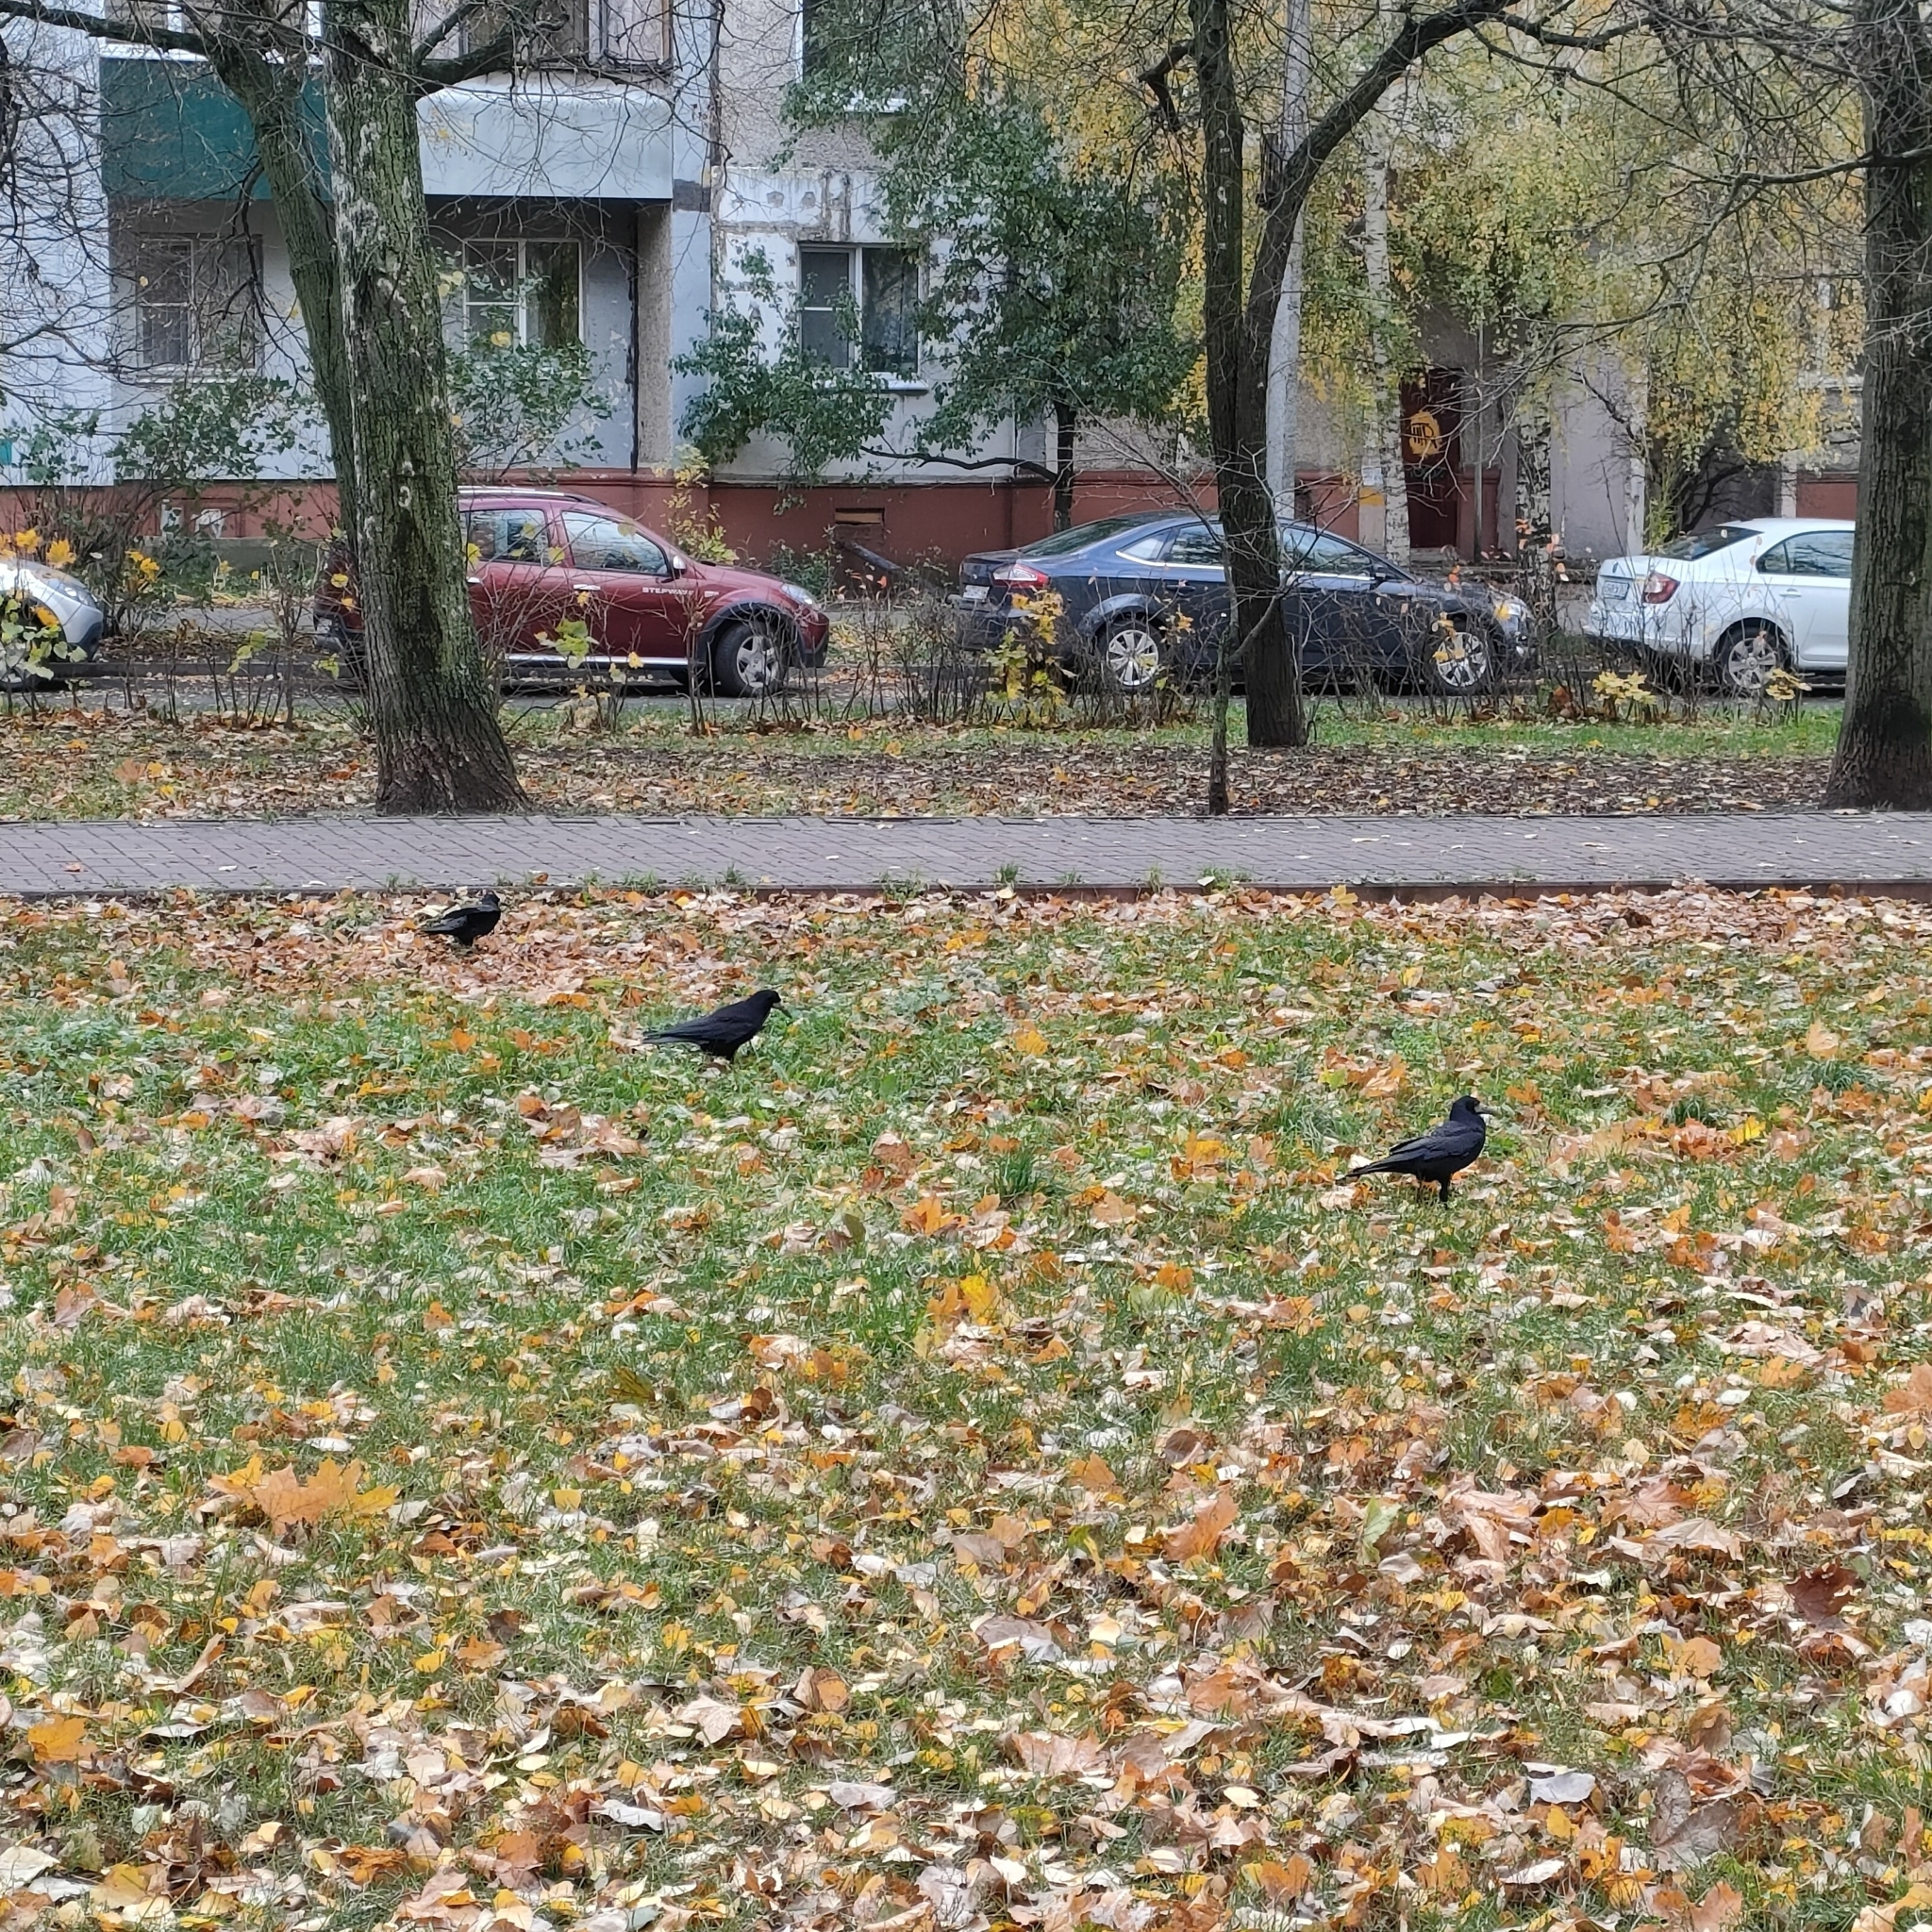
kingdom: Animalia
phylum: Chordata
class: Aves
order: Passeriformes
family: Corvidae
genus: Corvus
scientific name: Corvus frugilegus
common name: Rook
